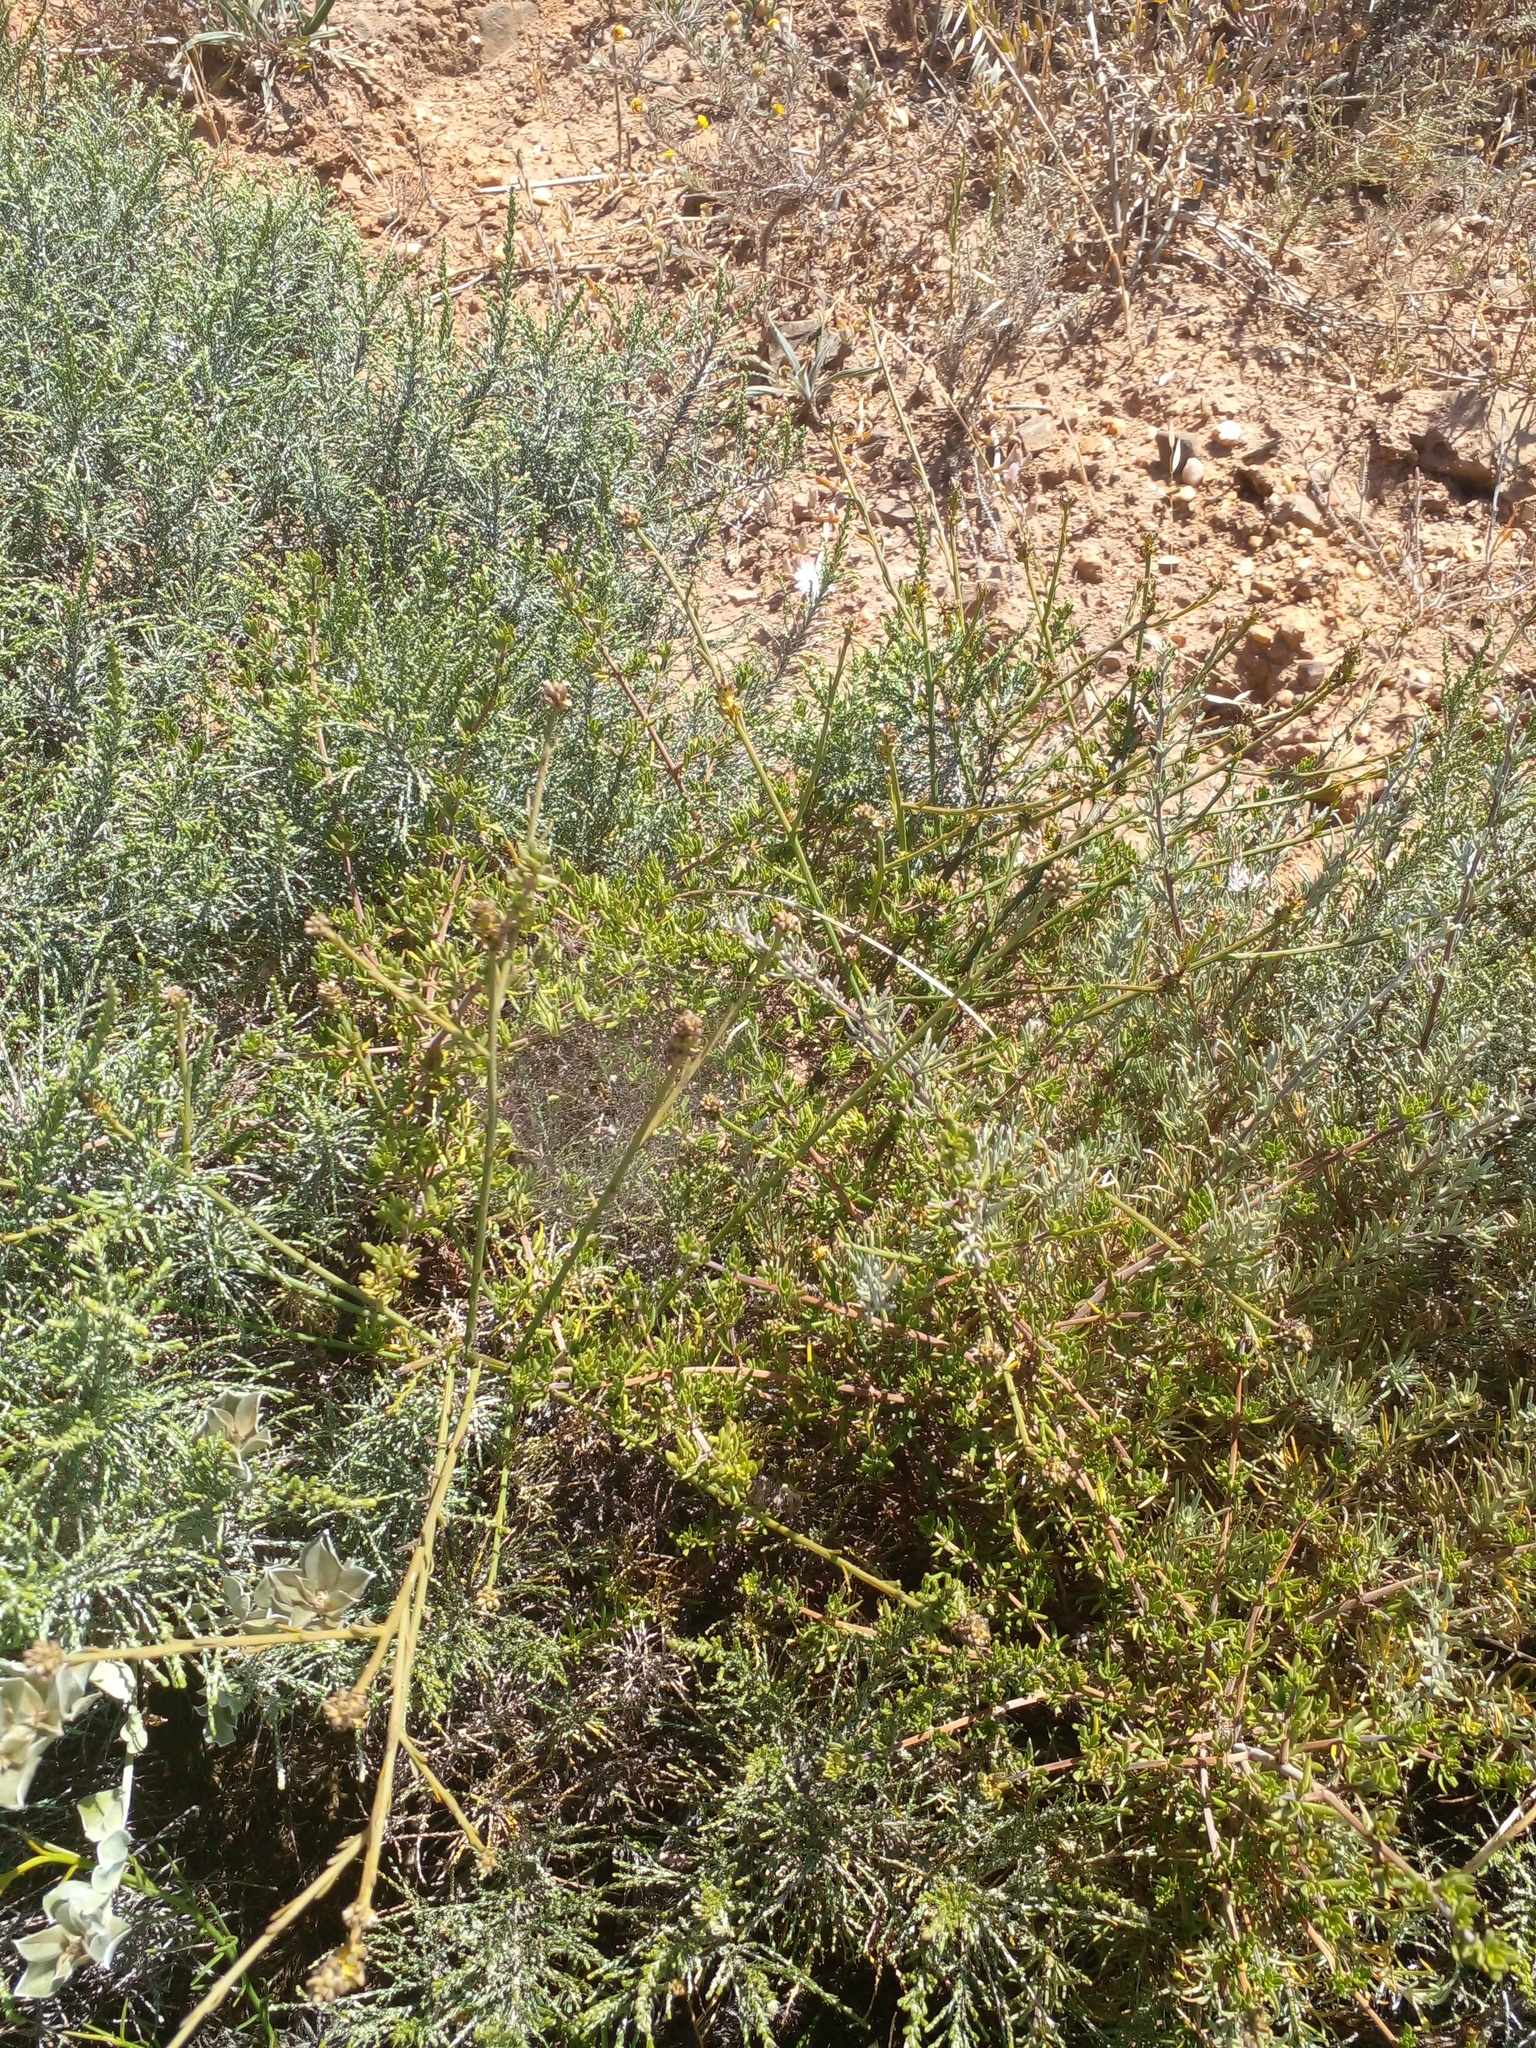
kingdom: Plantae
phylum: Tracheophyta
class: Magnoliopsida
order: Asterales
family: Asteraceae
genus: Dicerothamnus
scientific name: Dicerothamnus rhinocerotis
